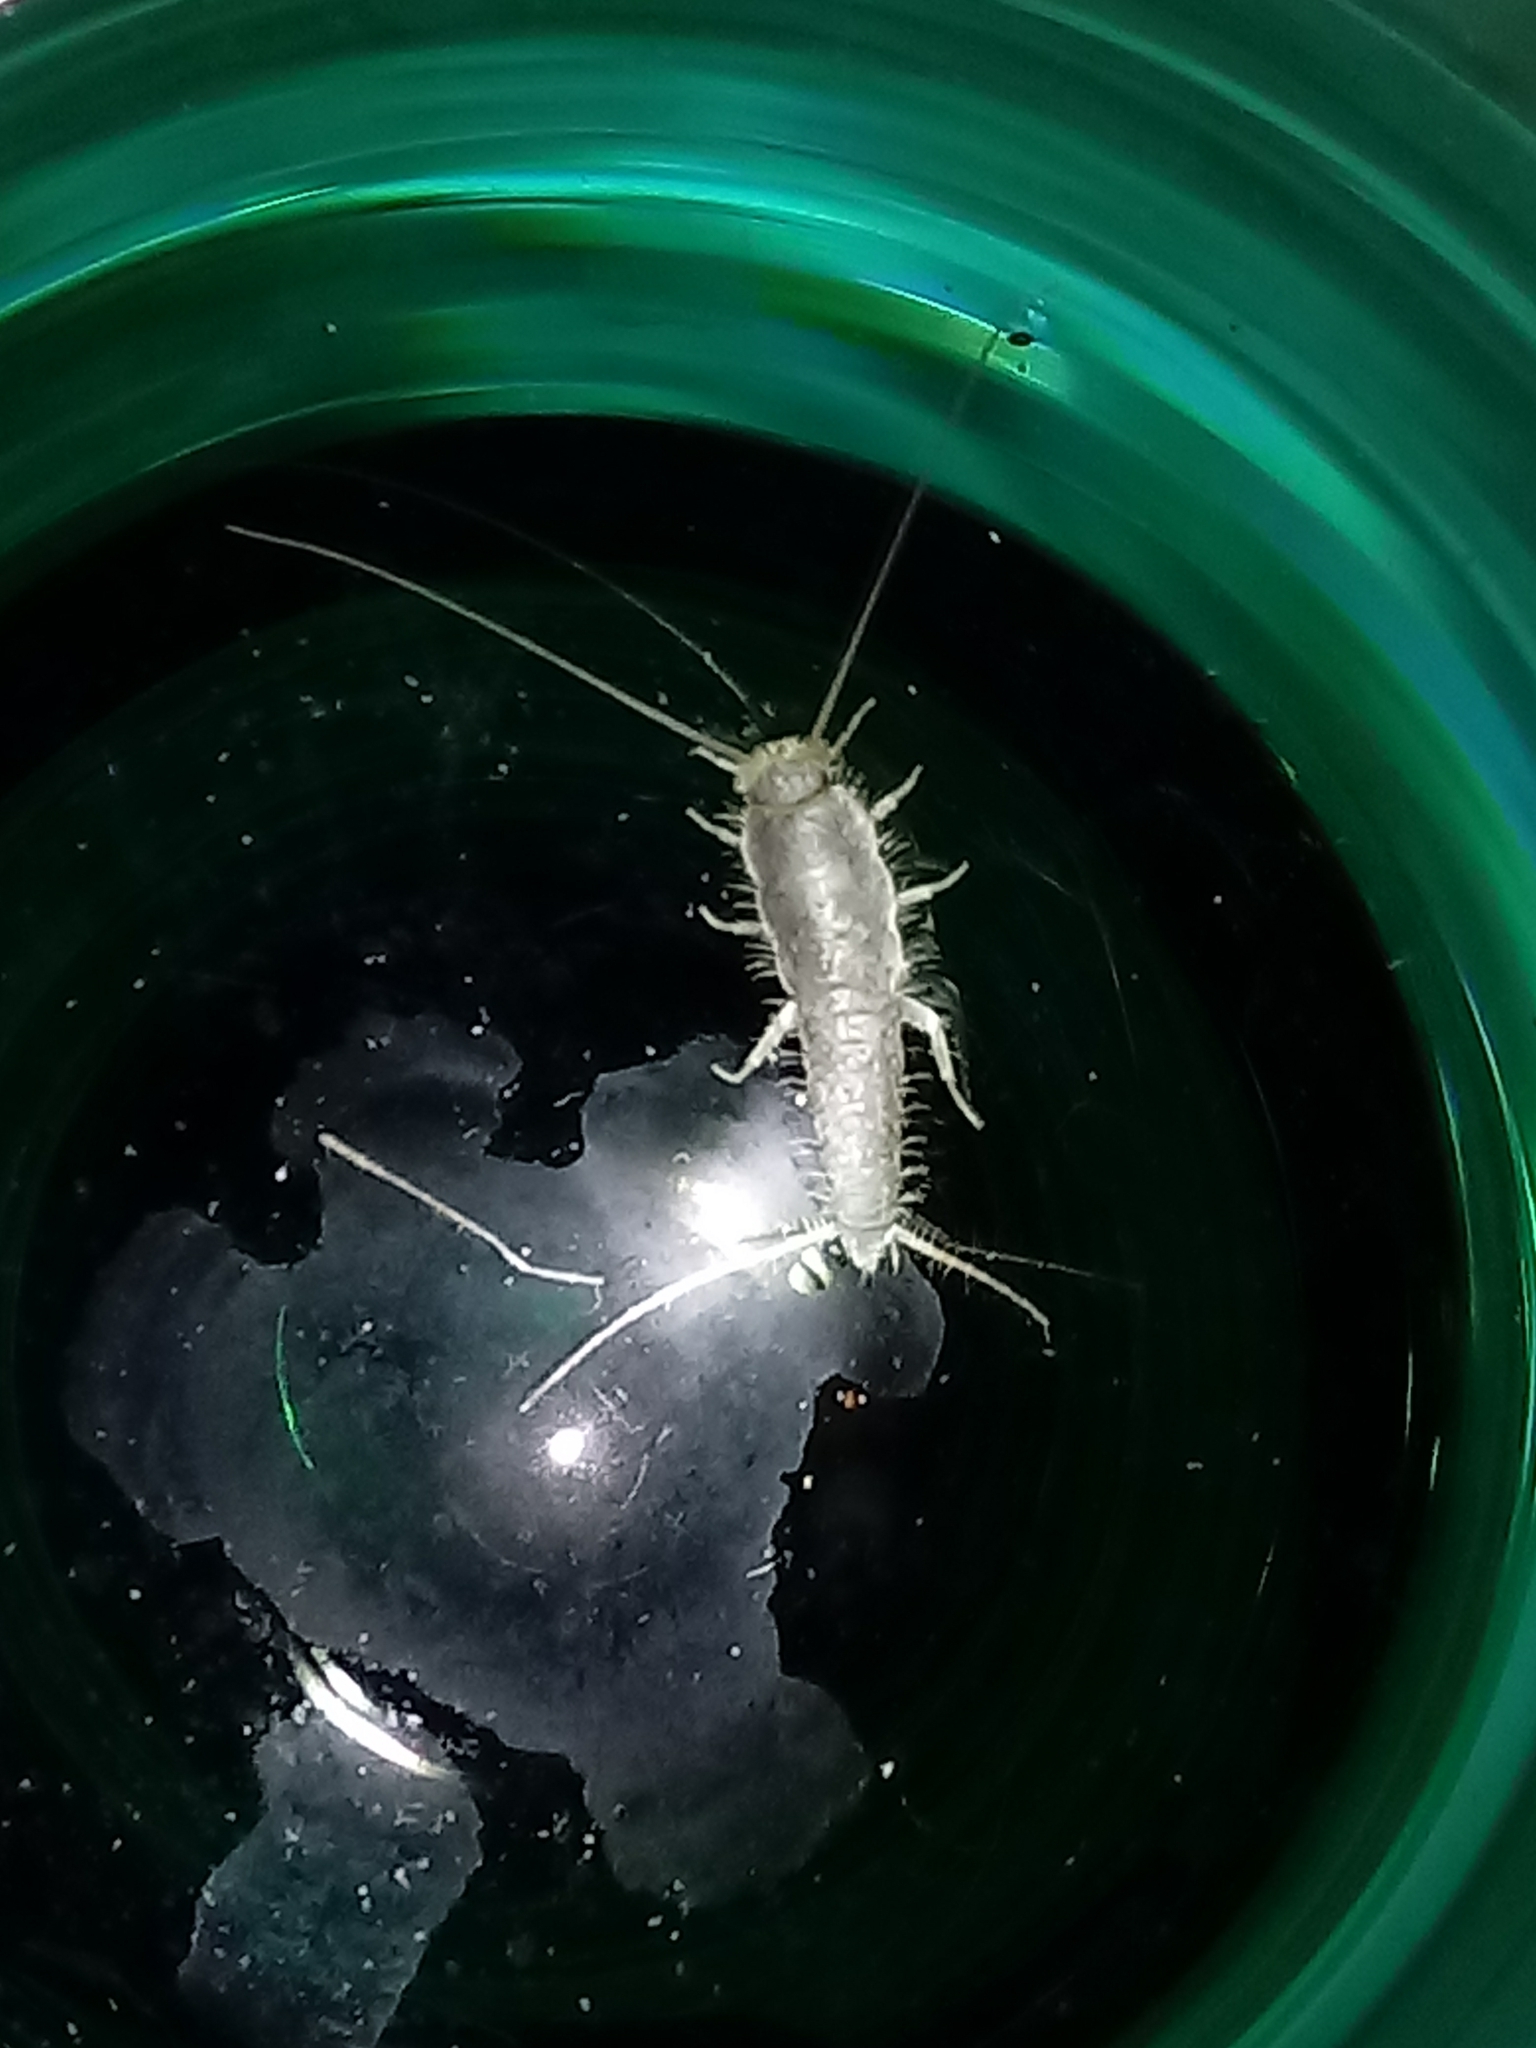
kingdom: Animalia
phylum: Arthropoda
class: Insecta
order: Zygentoma
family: Lepismatidae
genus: Ctenolepisma
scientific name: Ctenolepisma longicaudatum
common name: Silverfish
